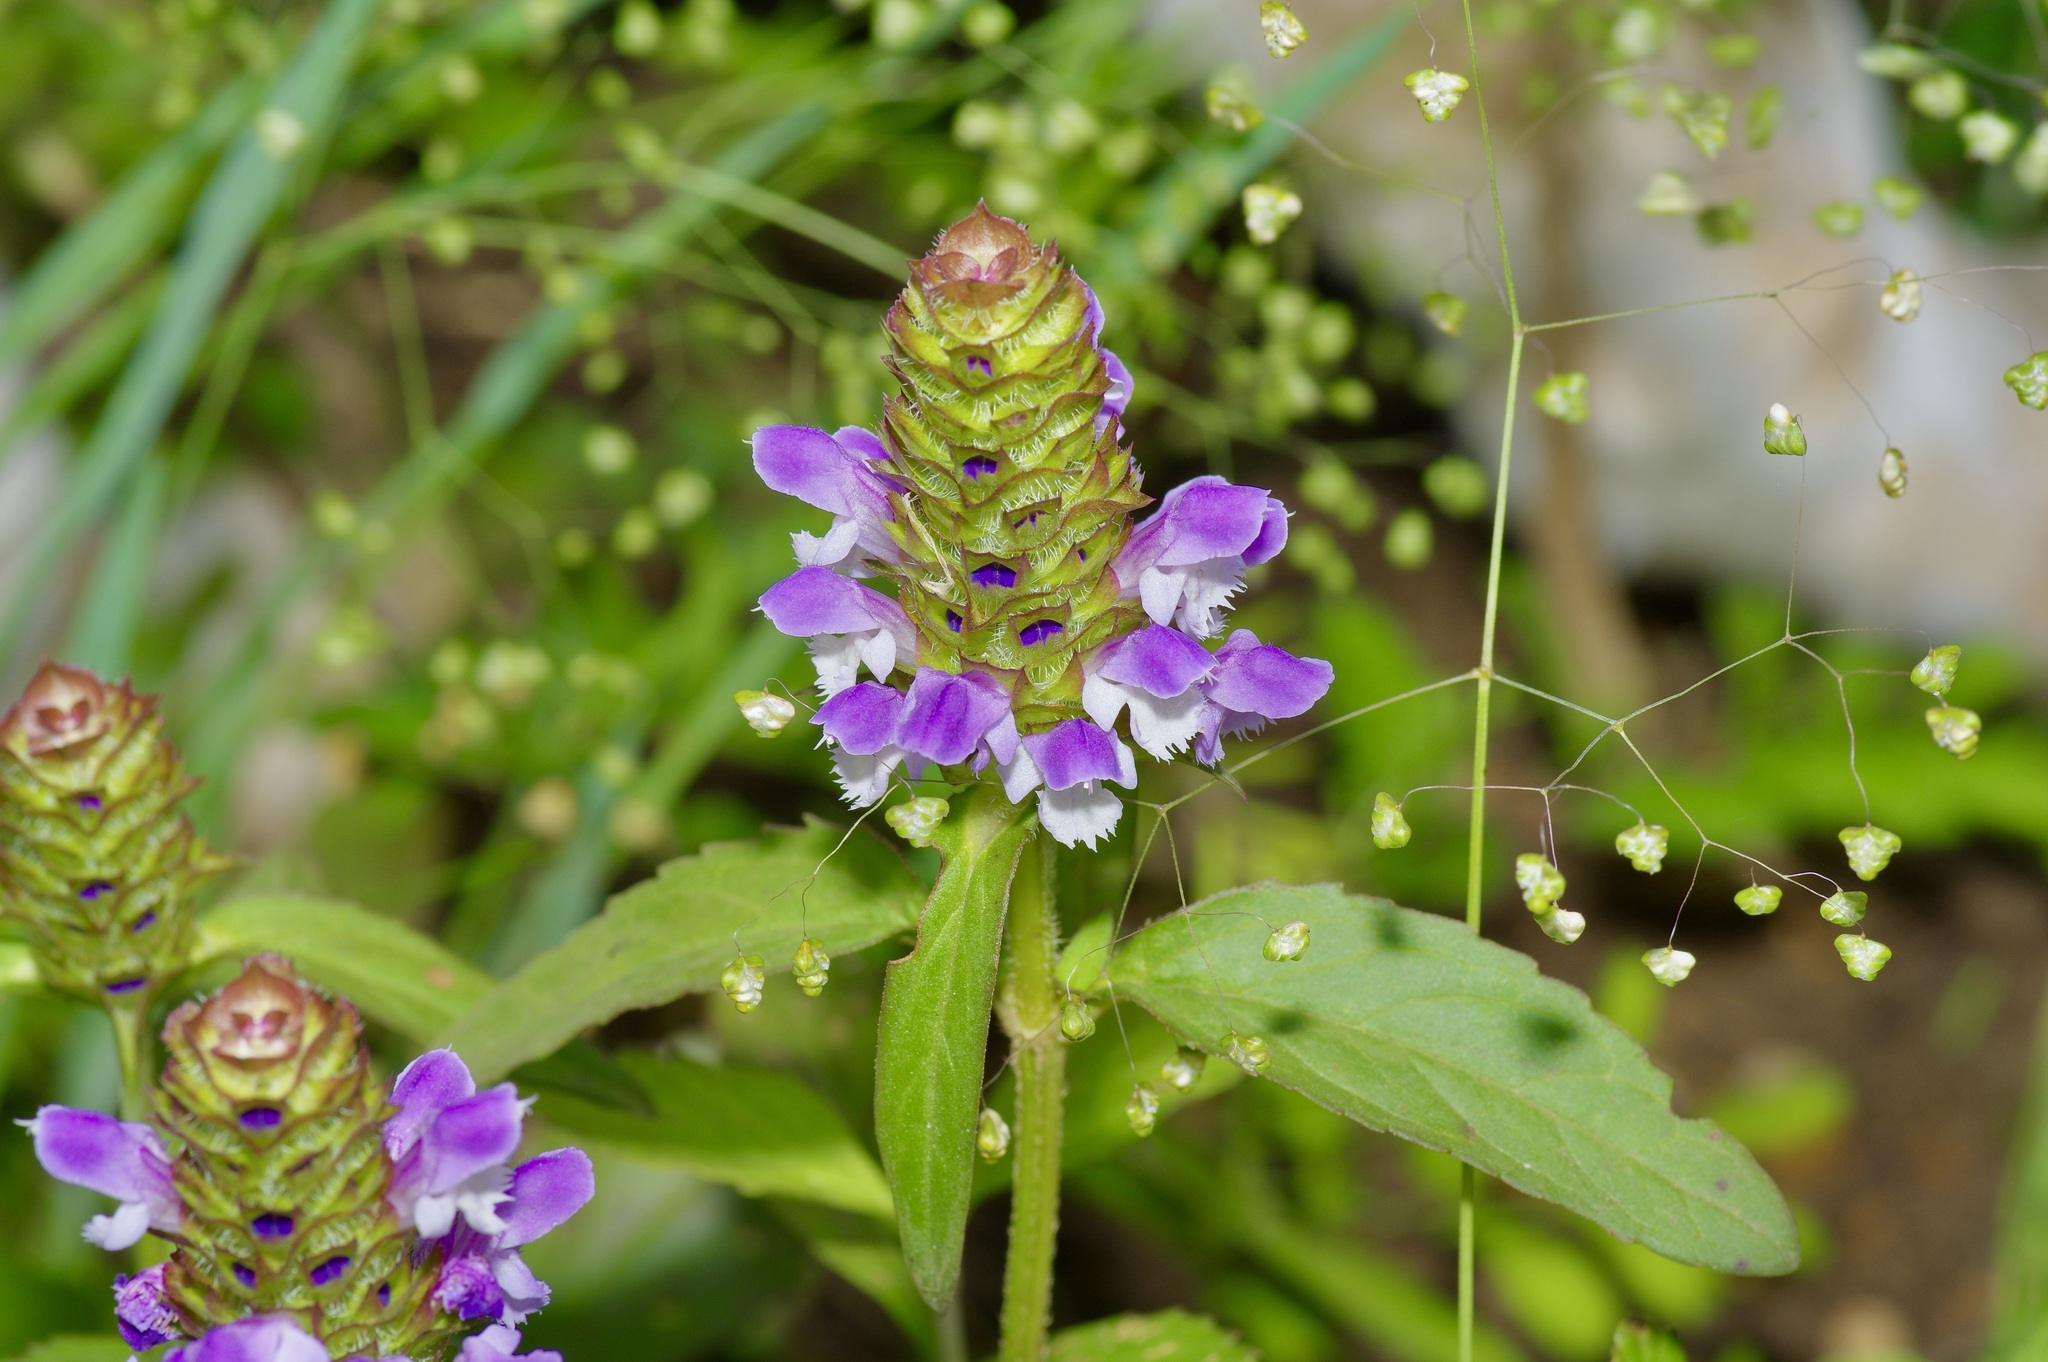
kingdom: Plantae
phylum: Tracheophyta
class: Magnoliopsida
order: Lamiales
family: Lamiaceae
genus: Prunella
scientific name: Prunella vulgaris
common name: Heal-all
